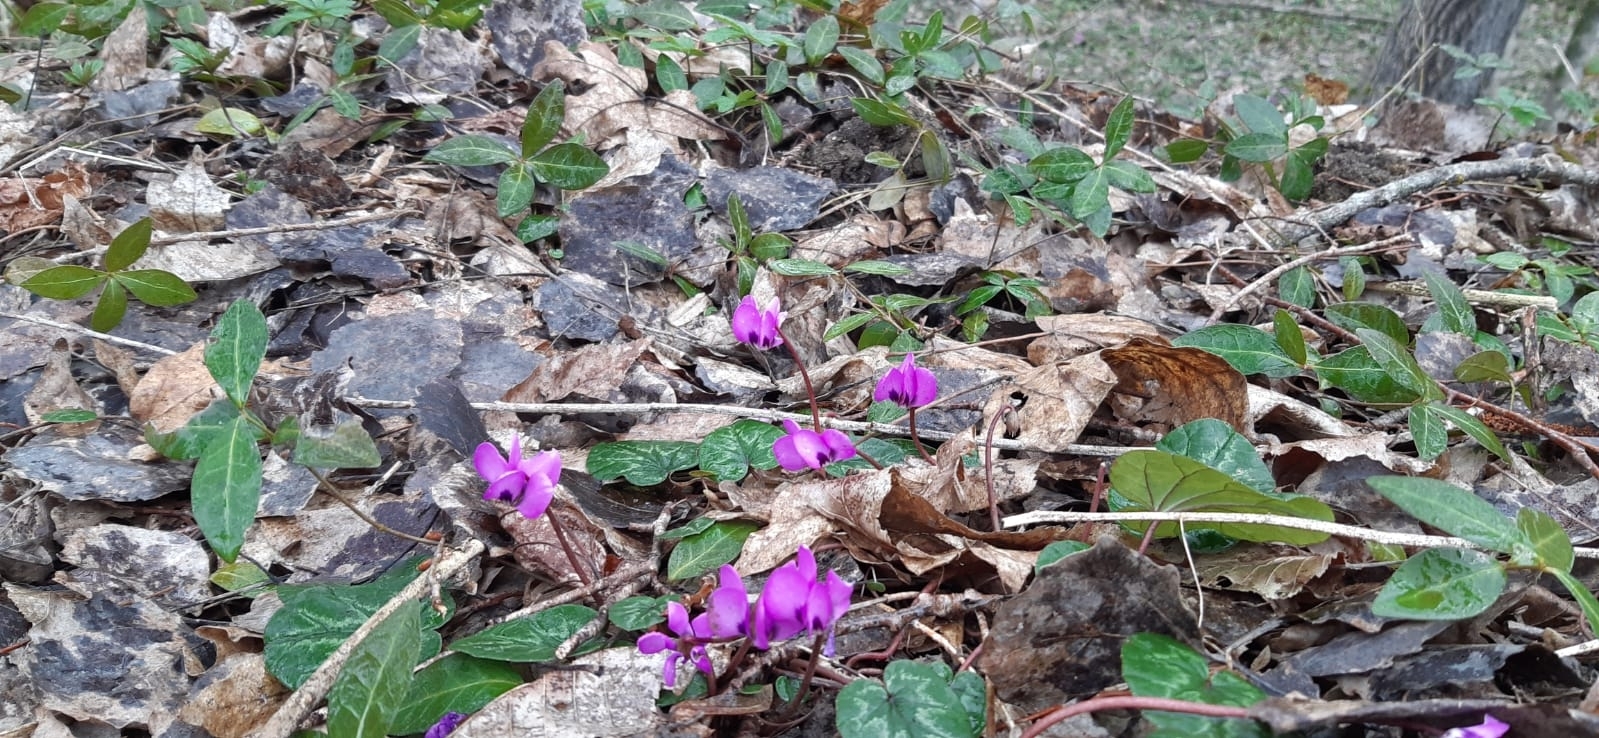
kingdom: Plantae
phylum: Tracheophyta
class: Magnoliopsida
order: Ericales
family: Primulaceae
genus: Cyclamen
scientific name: Cyclamen coum
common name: Eastern sowbread
